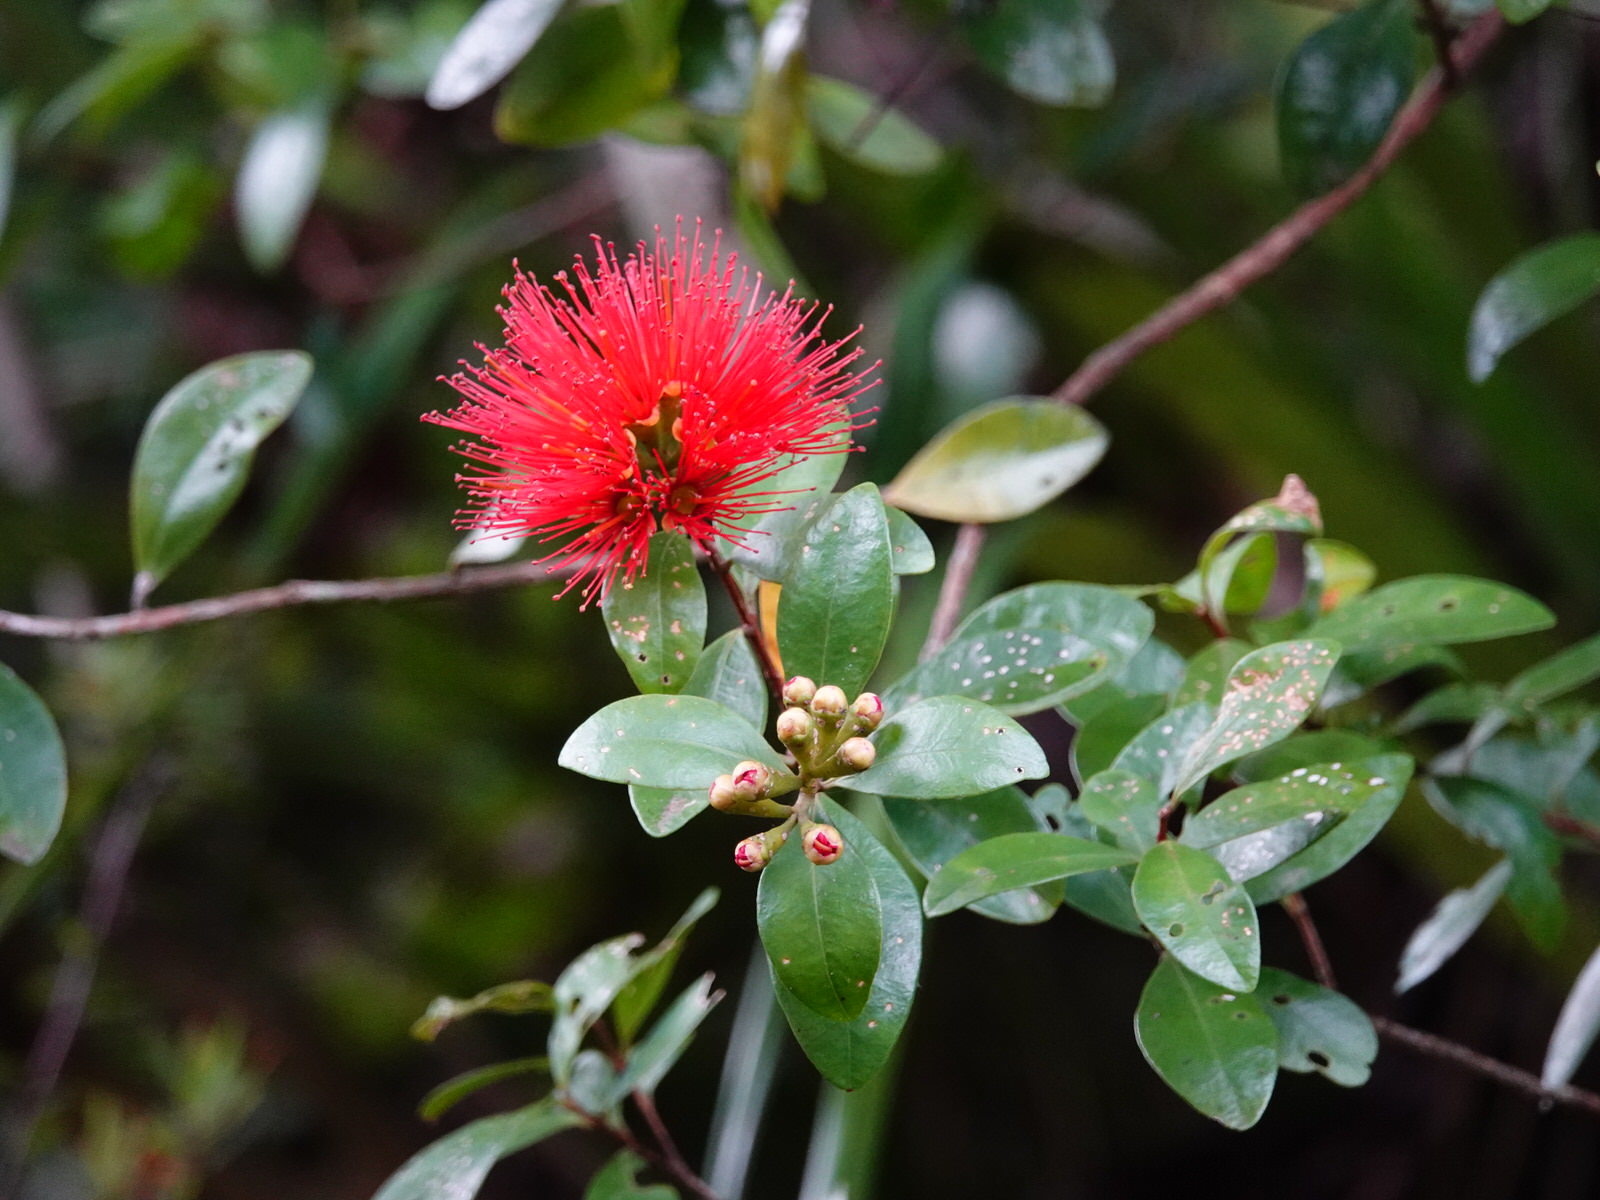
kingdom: Plantae
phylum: Tracheophyta
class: Magnoliopsida
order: Myrtales
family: Myrtaceae
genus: Metrosideros
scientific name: Metrosideros fulgens
